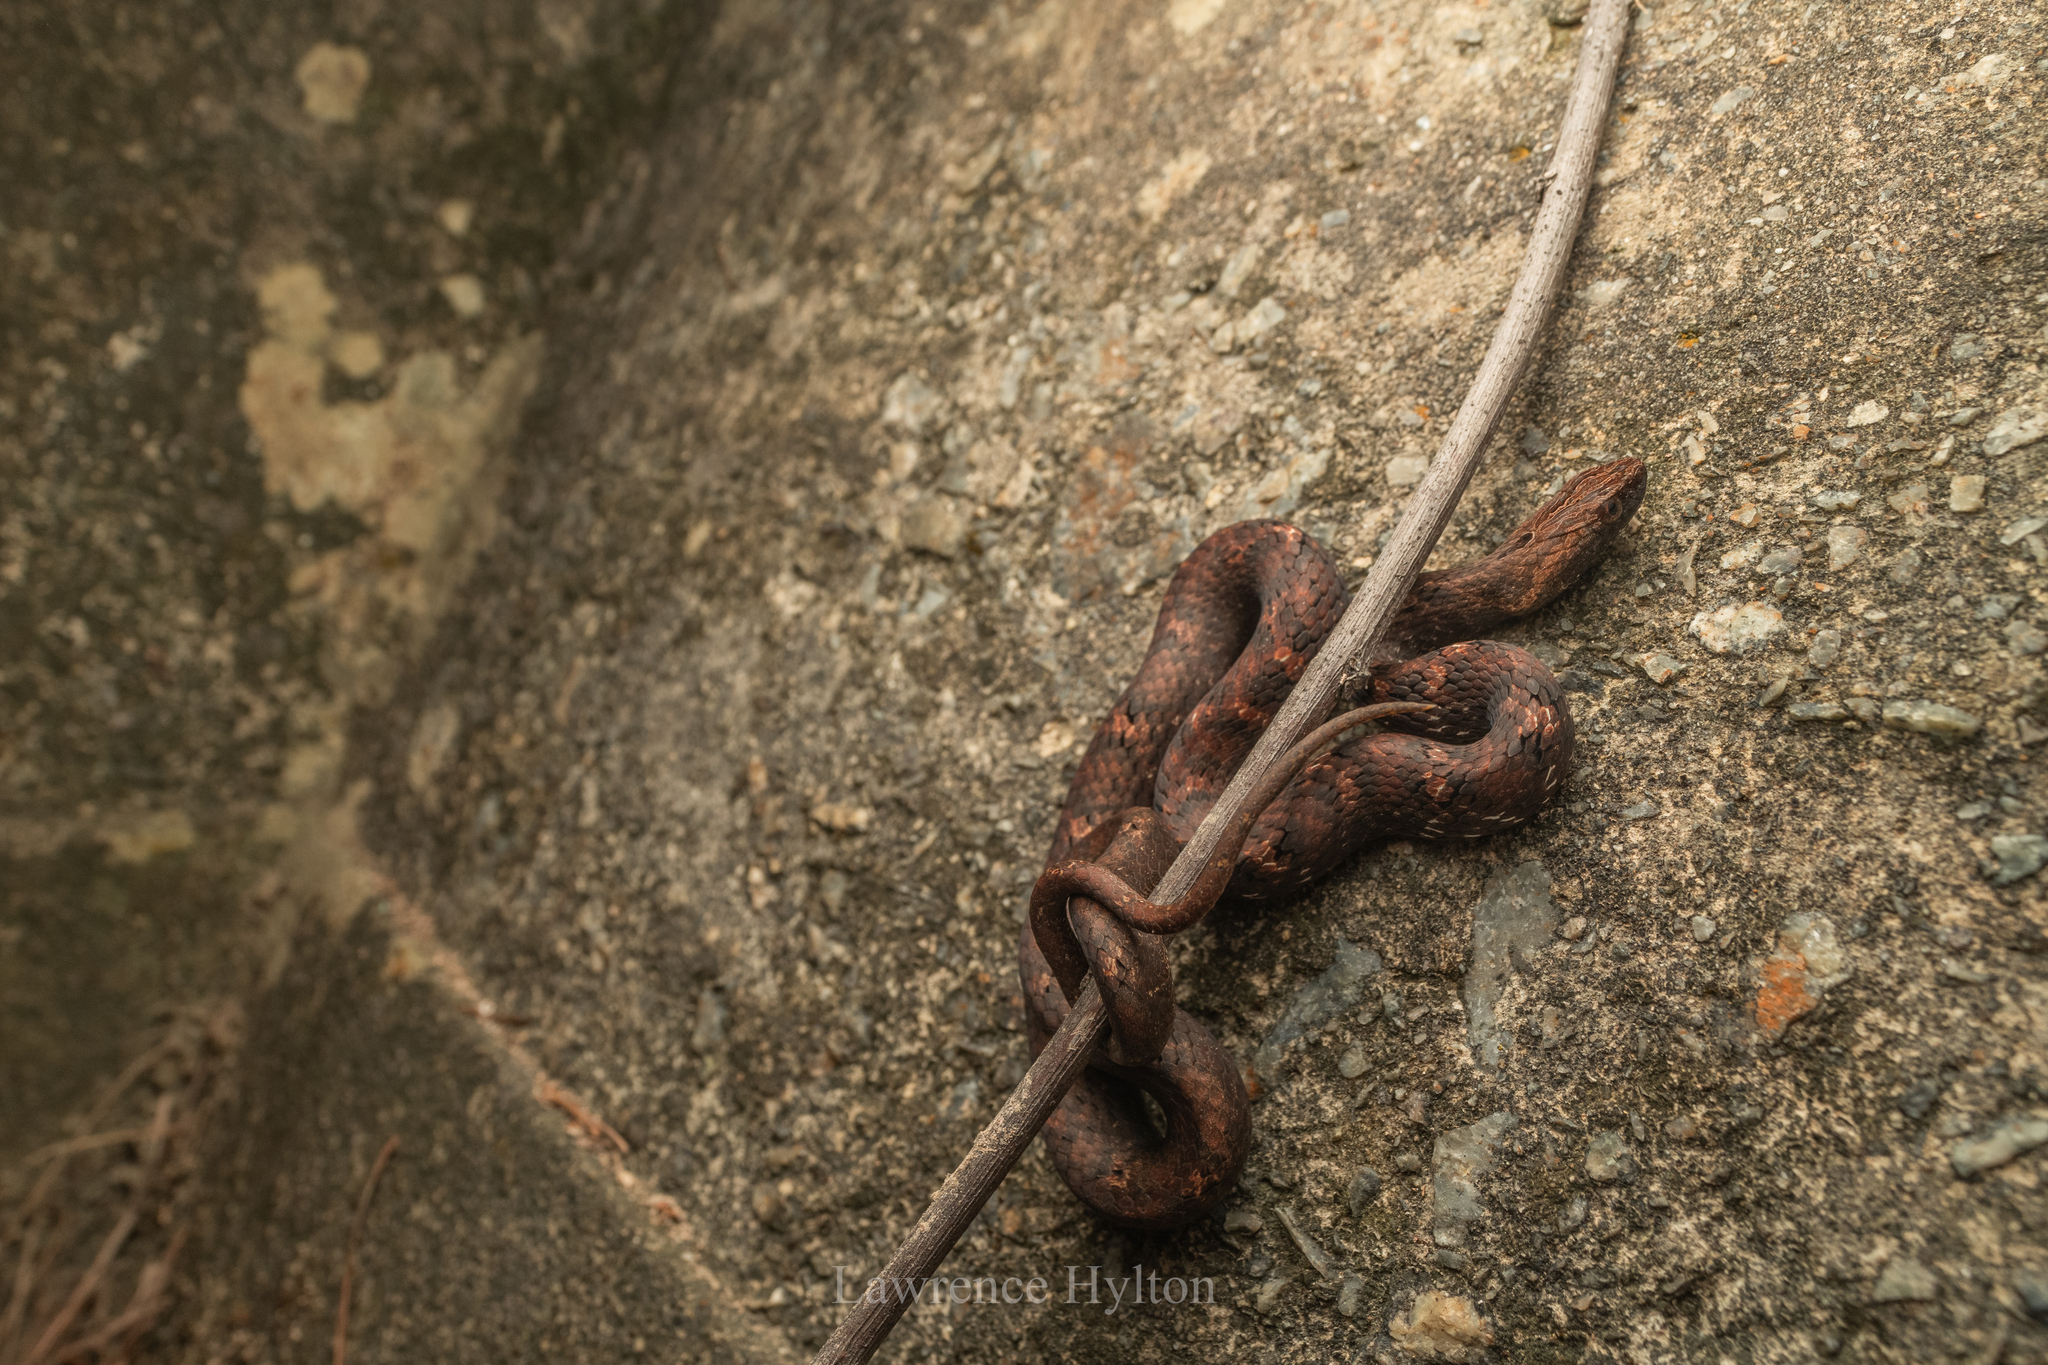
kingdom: Animalia
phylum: Chordata
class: Squamata
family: Pseudaspididae
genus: Psammodynastes
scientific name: Psammodynastes pulverulentus
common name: Common mock viper
